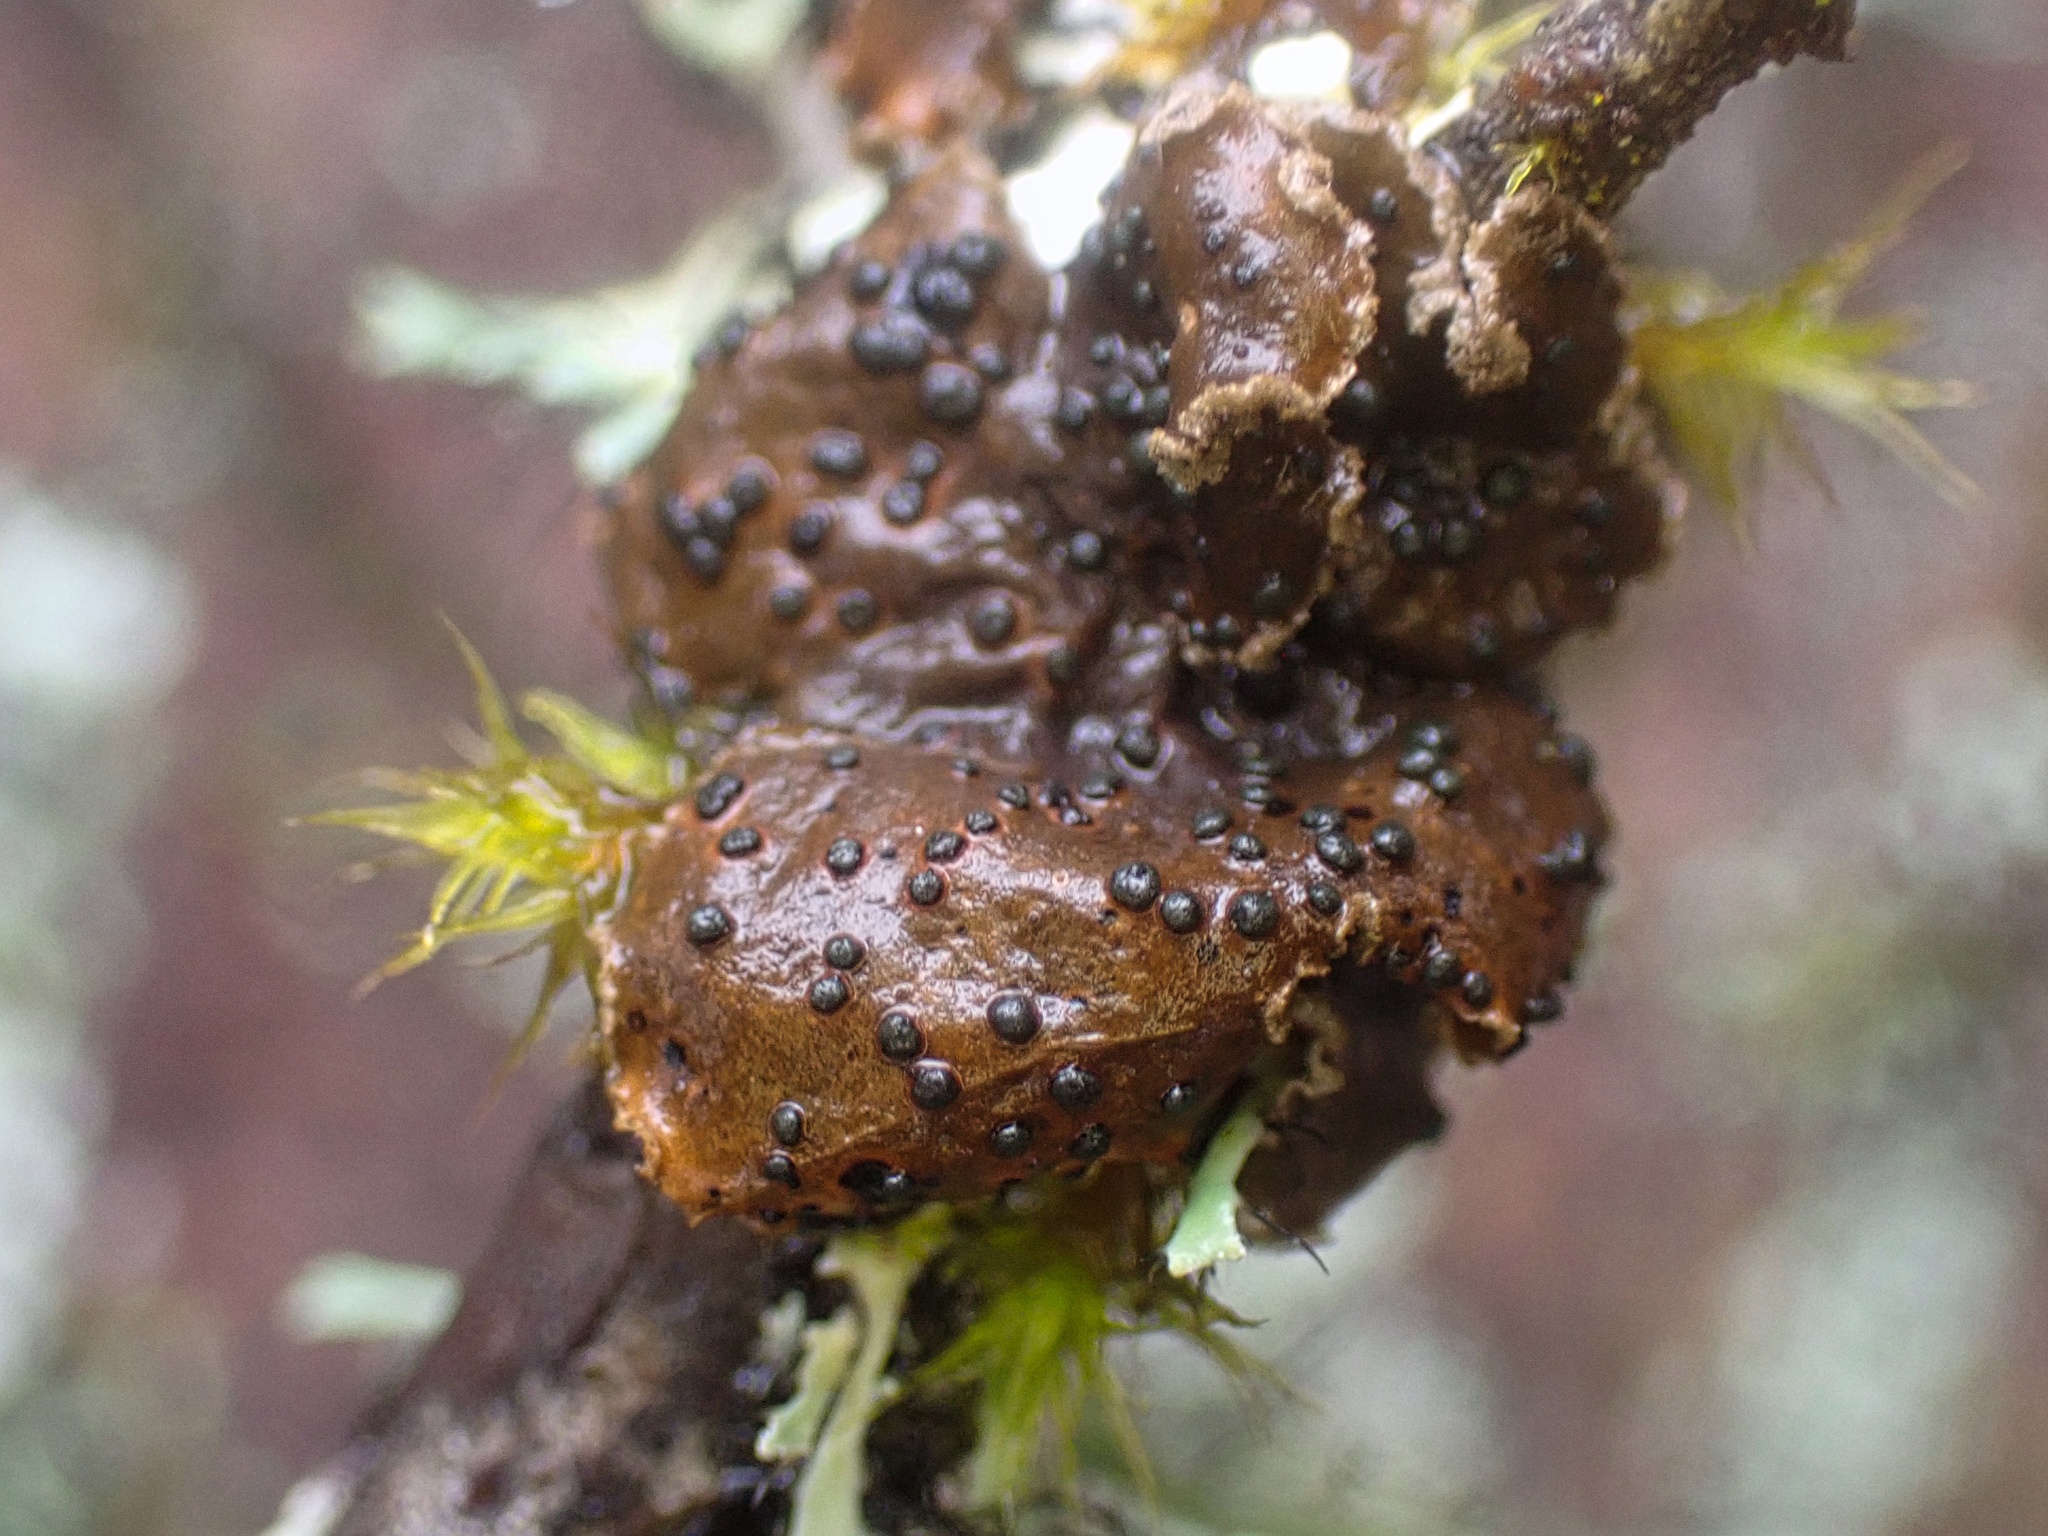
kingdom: Fungi
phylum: Ascomycota
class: Lecanoromycetes
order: Peltigerales
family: Lobariaceae
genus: Sticta
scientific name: Sticta limbata
